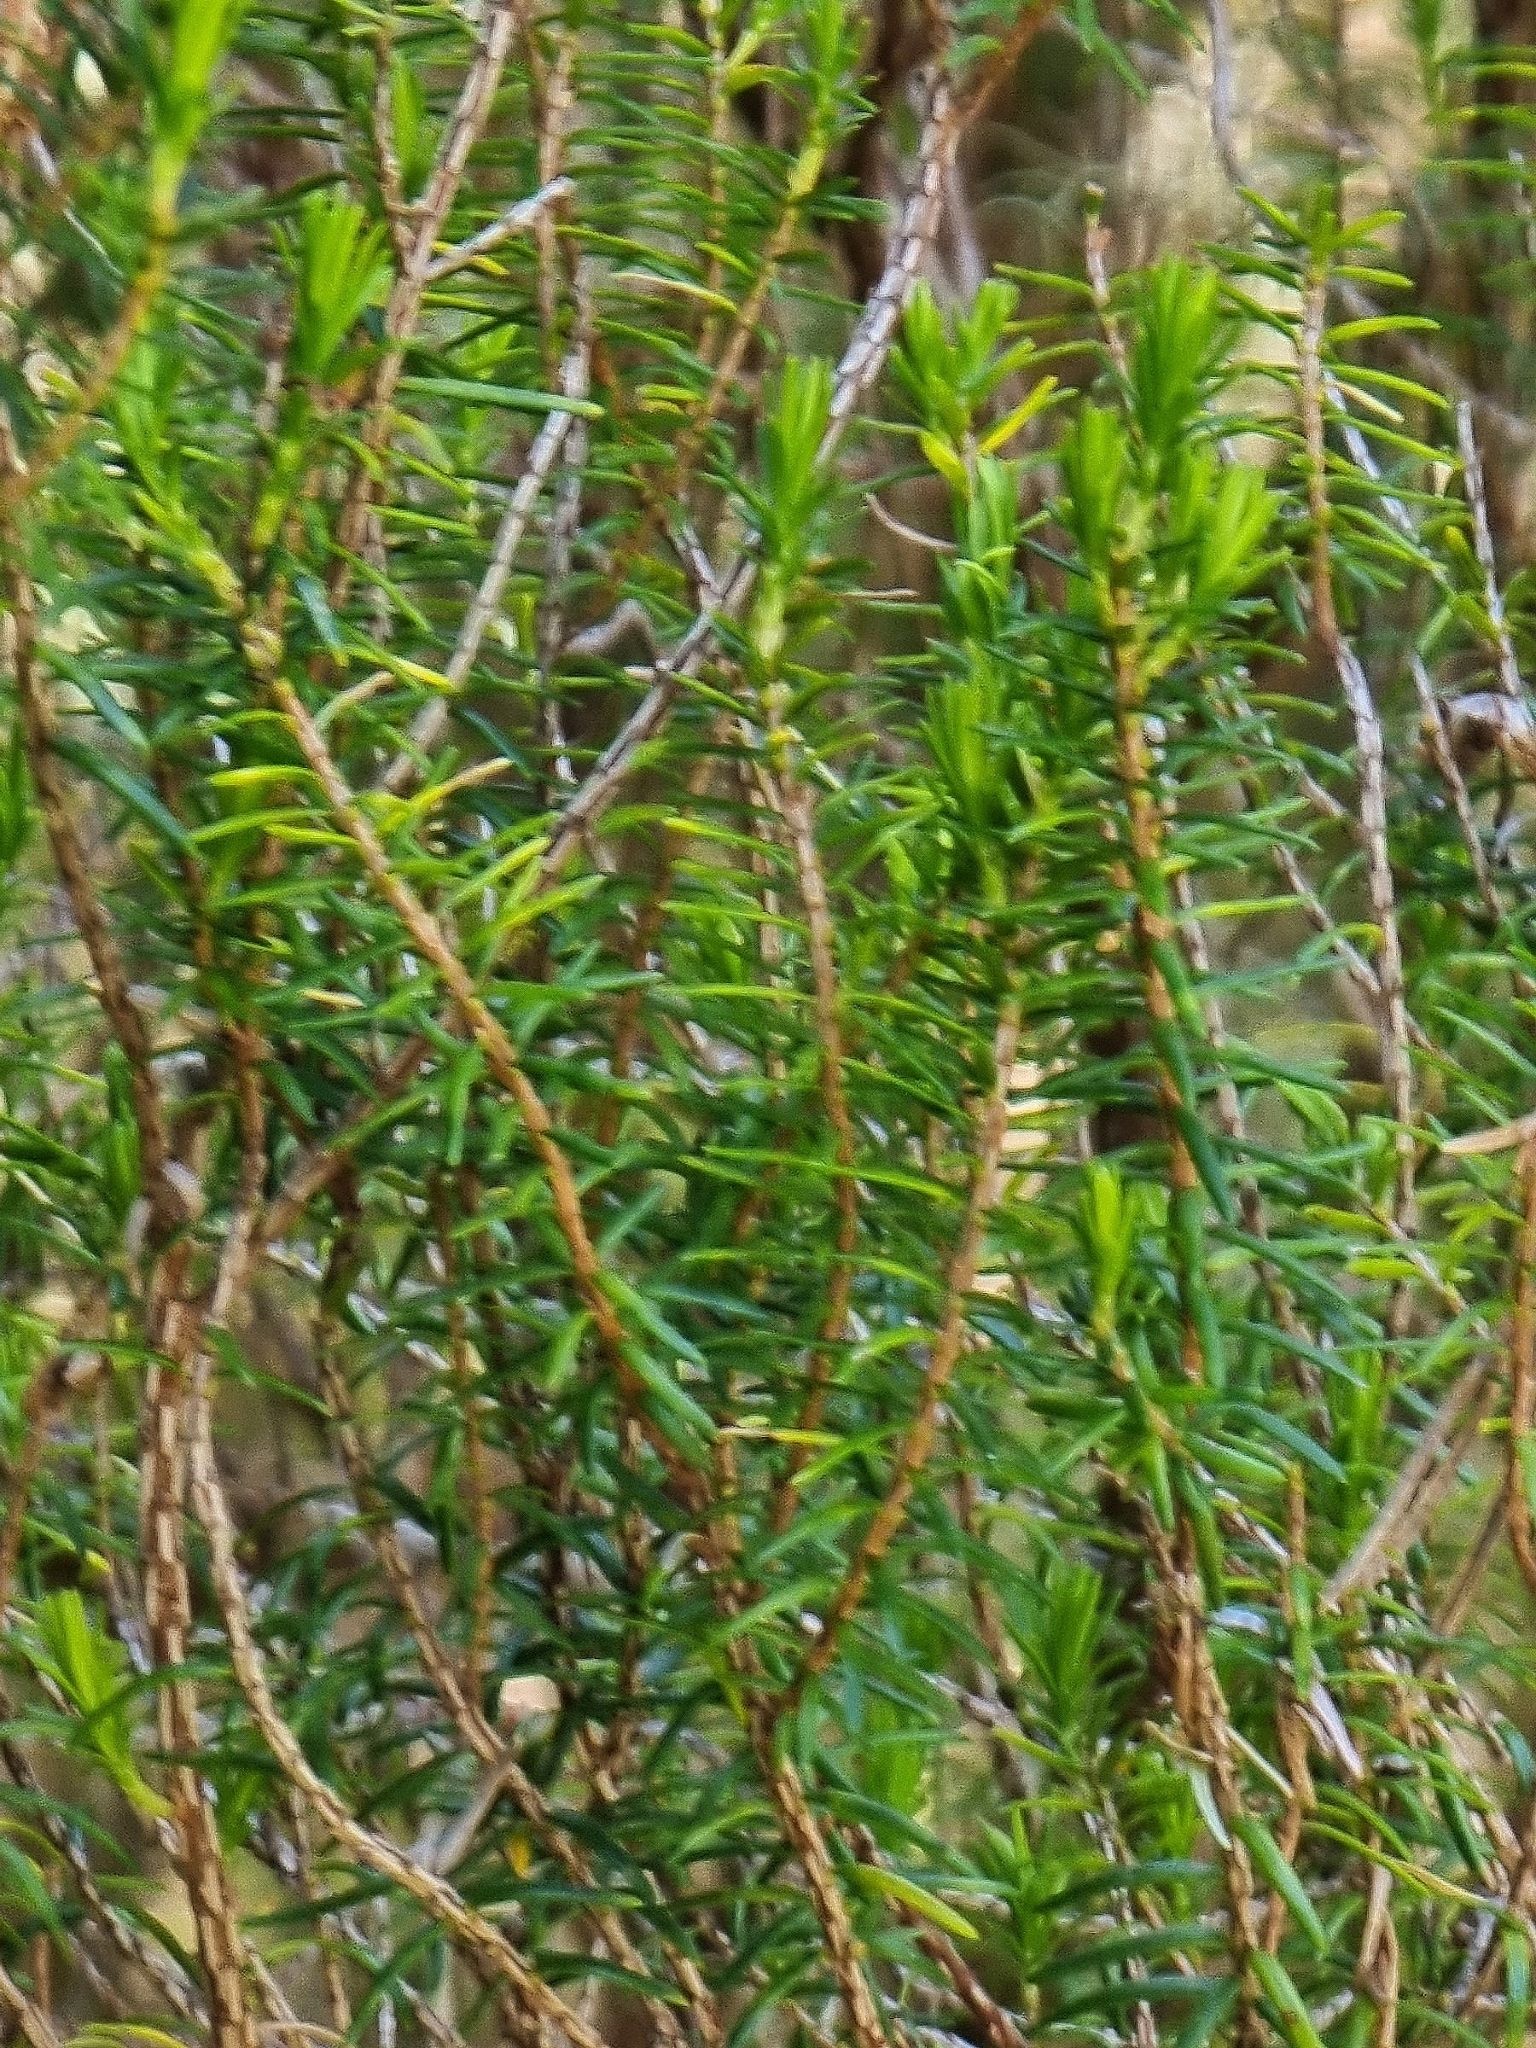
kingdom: Plantae
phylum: Tracheophyta
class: Magnoliopsida
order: Ericales
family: Ericaceae
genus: Erica
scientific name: Erica platycodon
